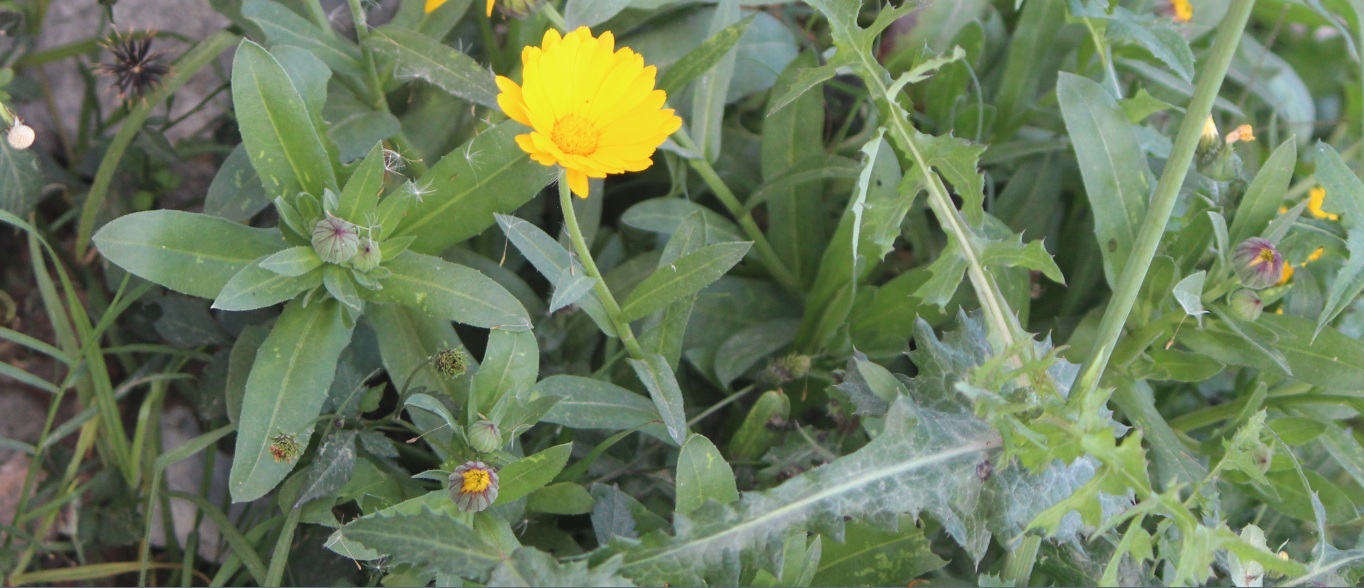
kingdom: Plantae
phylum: Tracheophyta
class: Magnoliopsida
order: Asterales
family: Asteraceae
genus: Calendula
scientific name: Calendula officinalis
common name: Pot marigold
